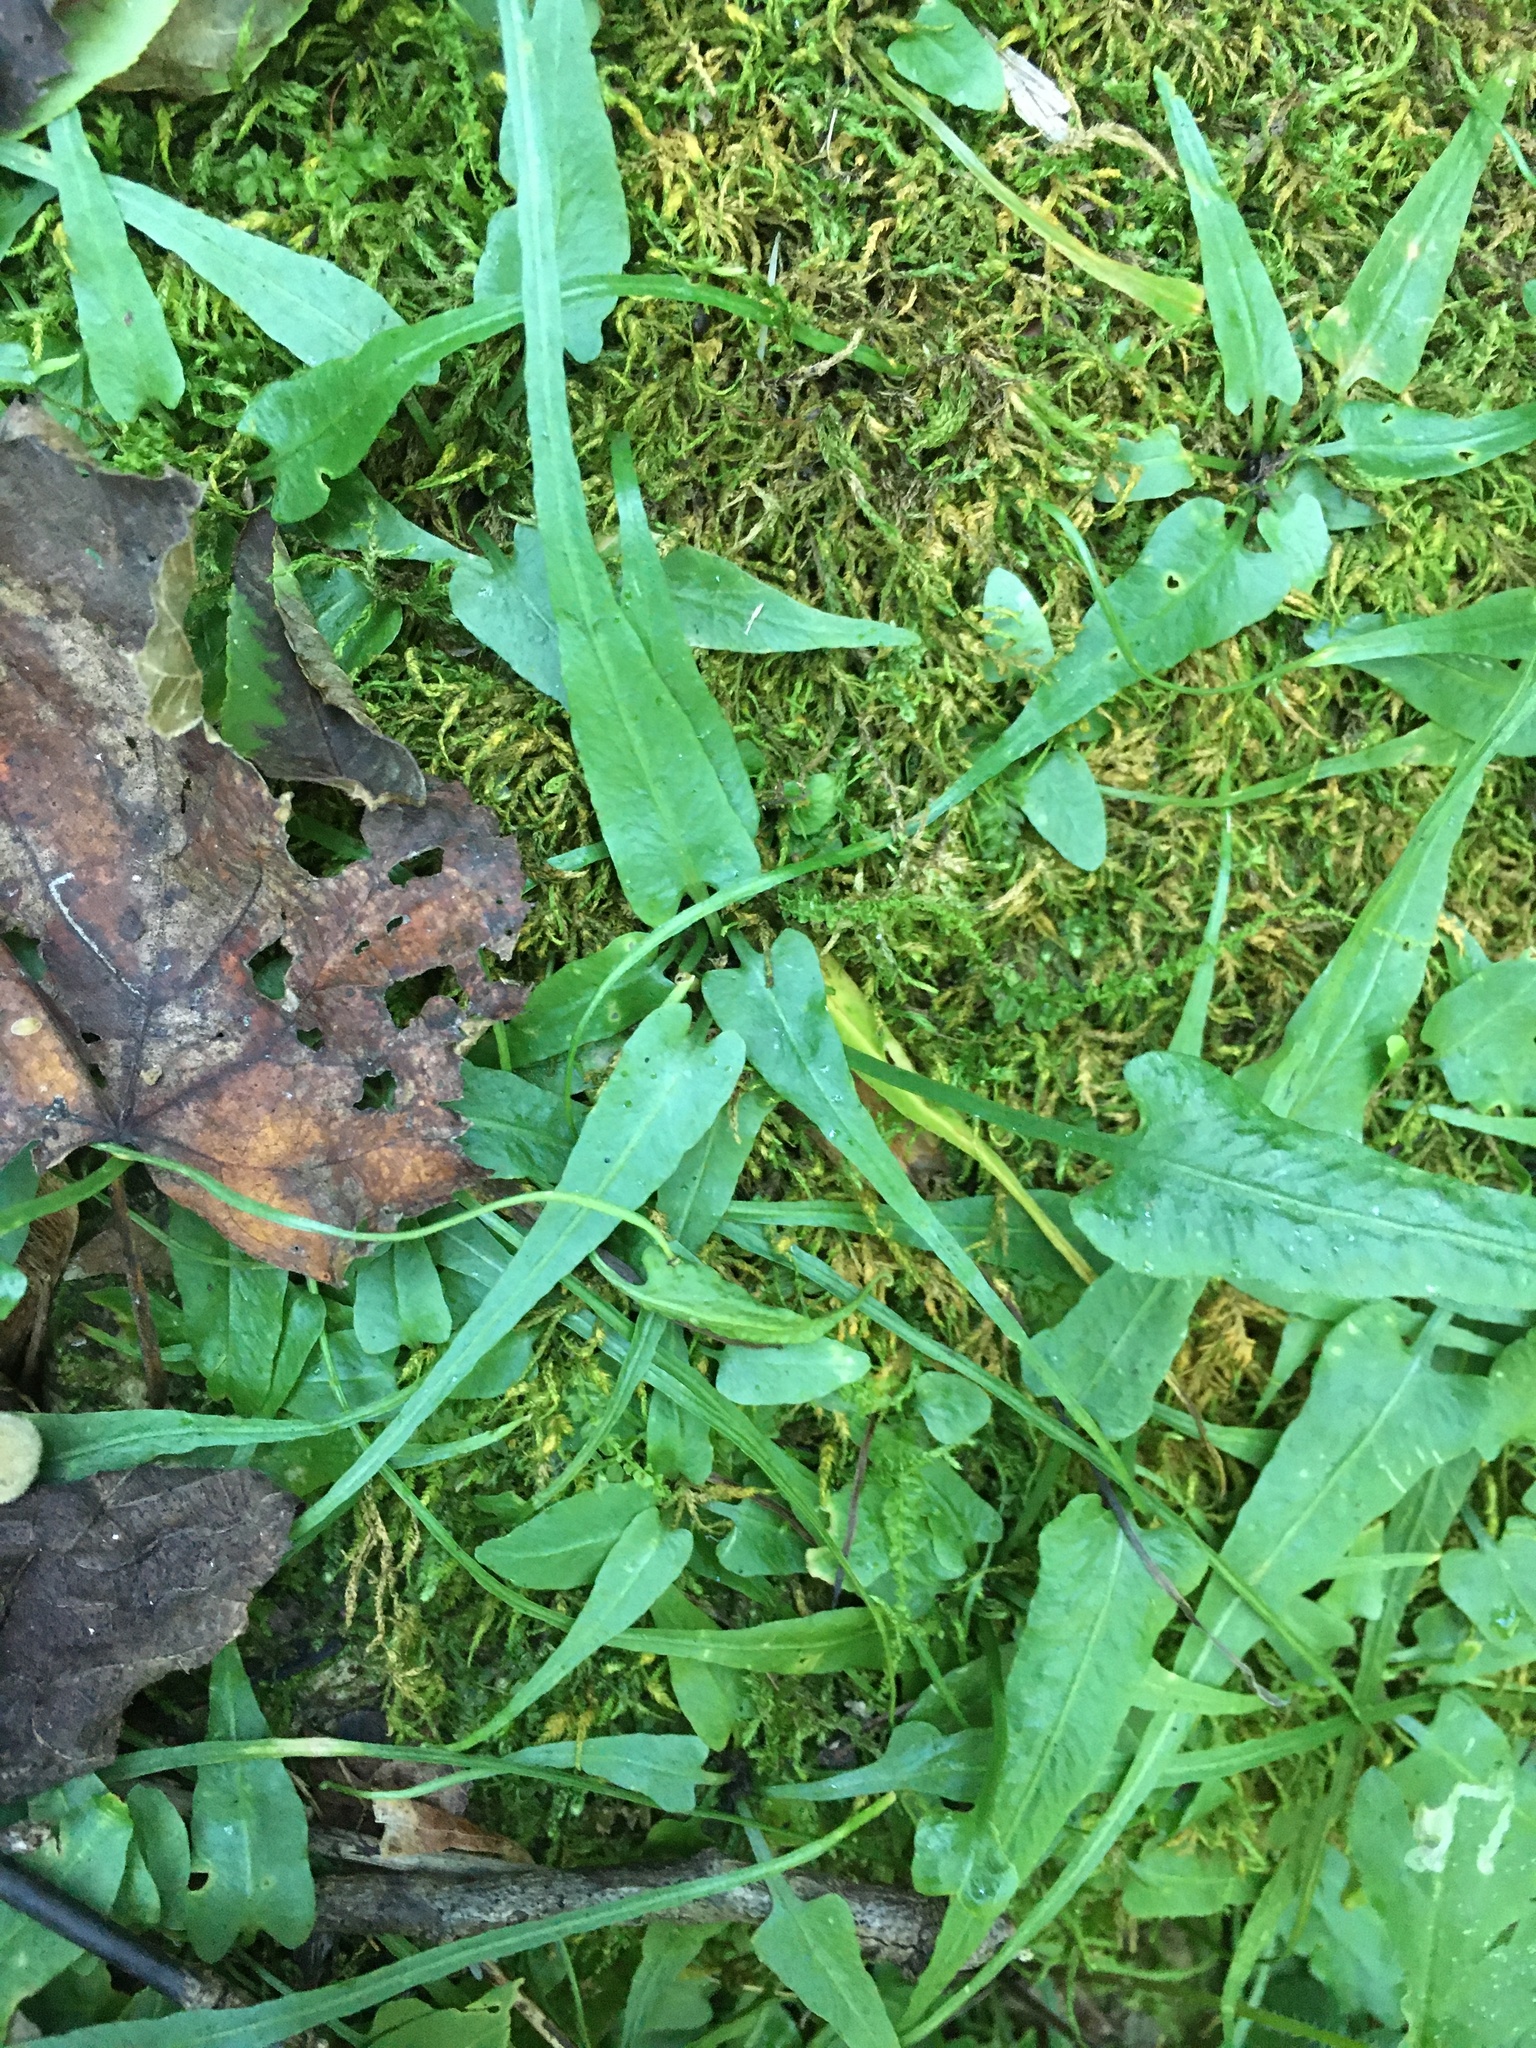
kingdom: Plantae
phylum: Tracheophyta
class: Polypodiopsida
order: Polypodiales
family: Aspleniaceae
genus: Asplenium
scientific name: Asplenium rhizophyllum
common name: Walking fern
